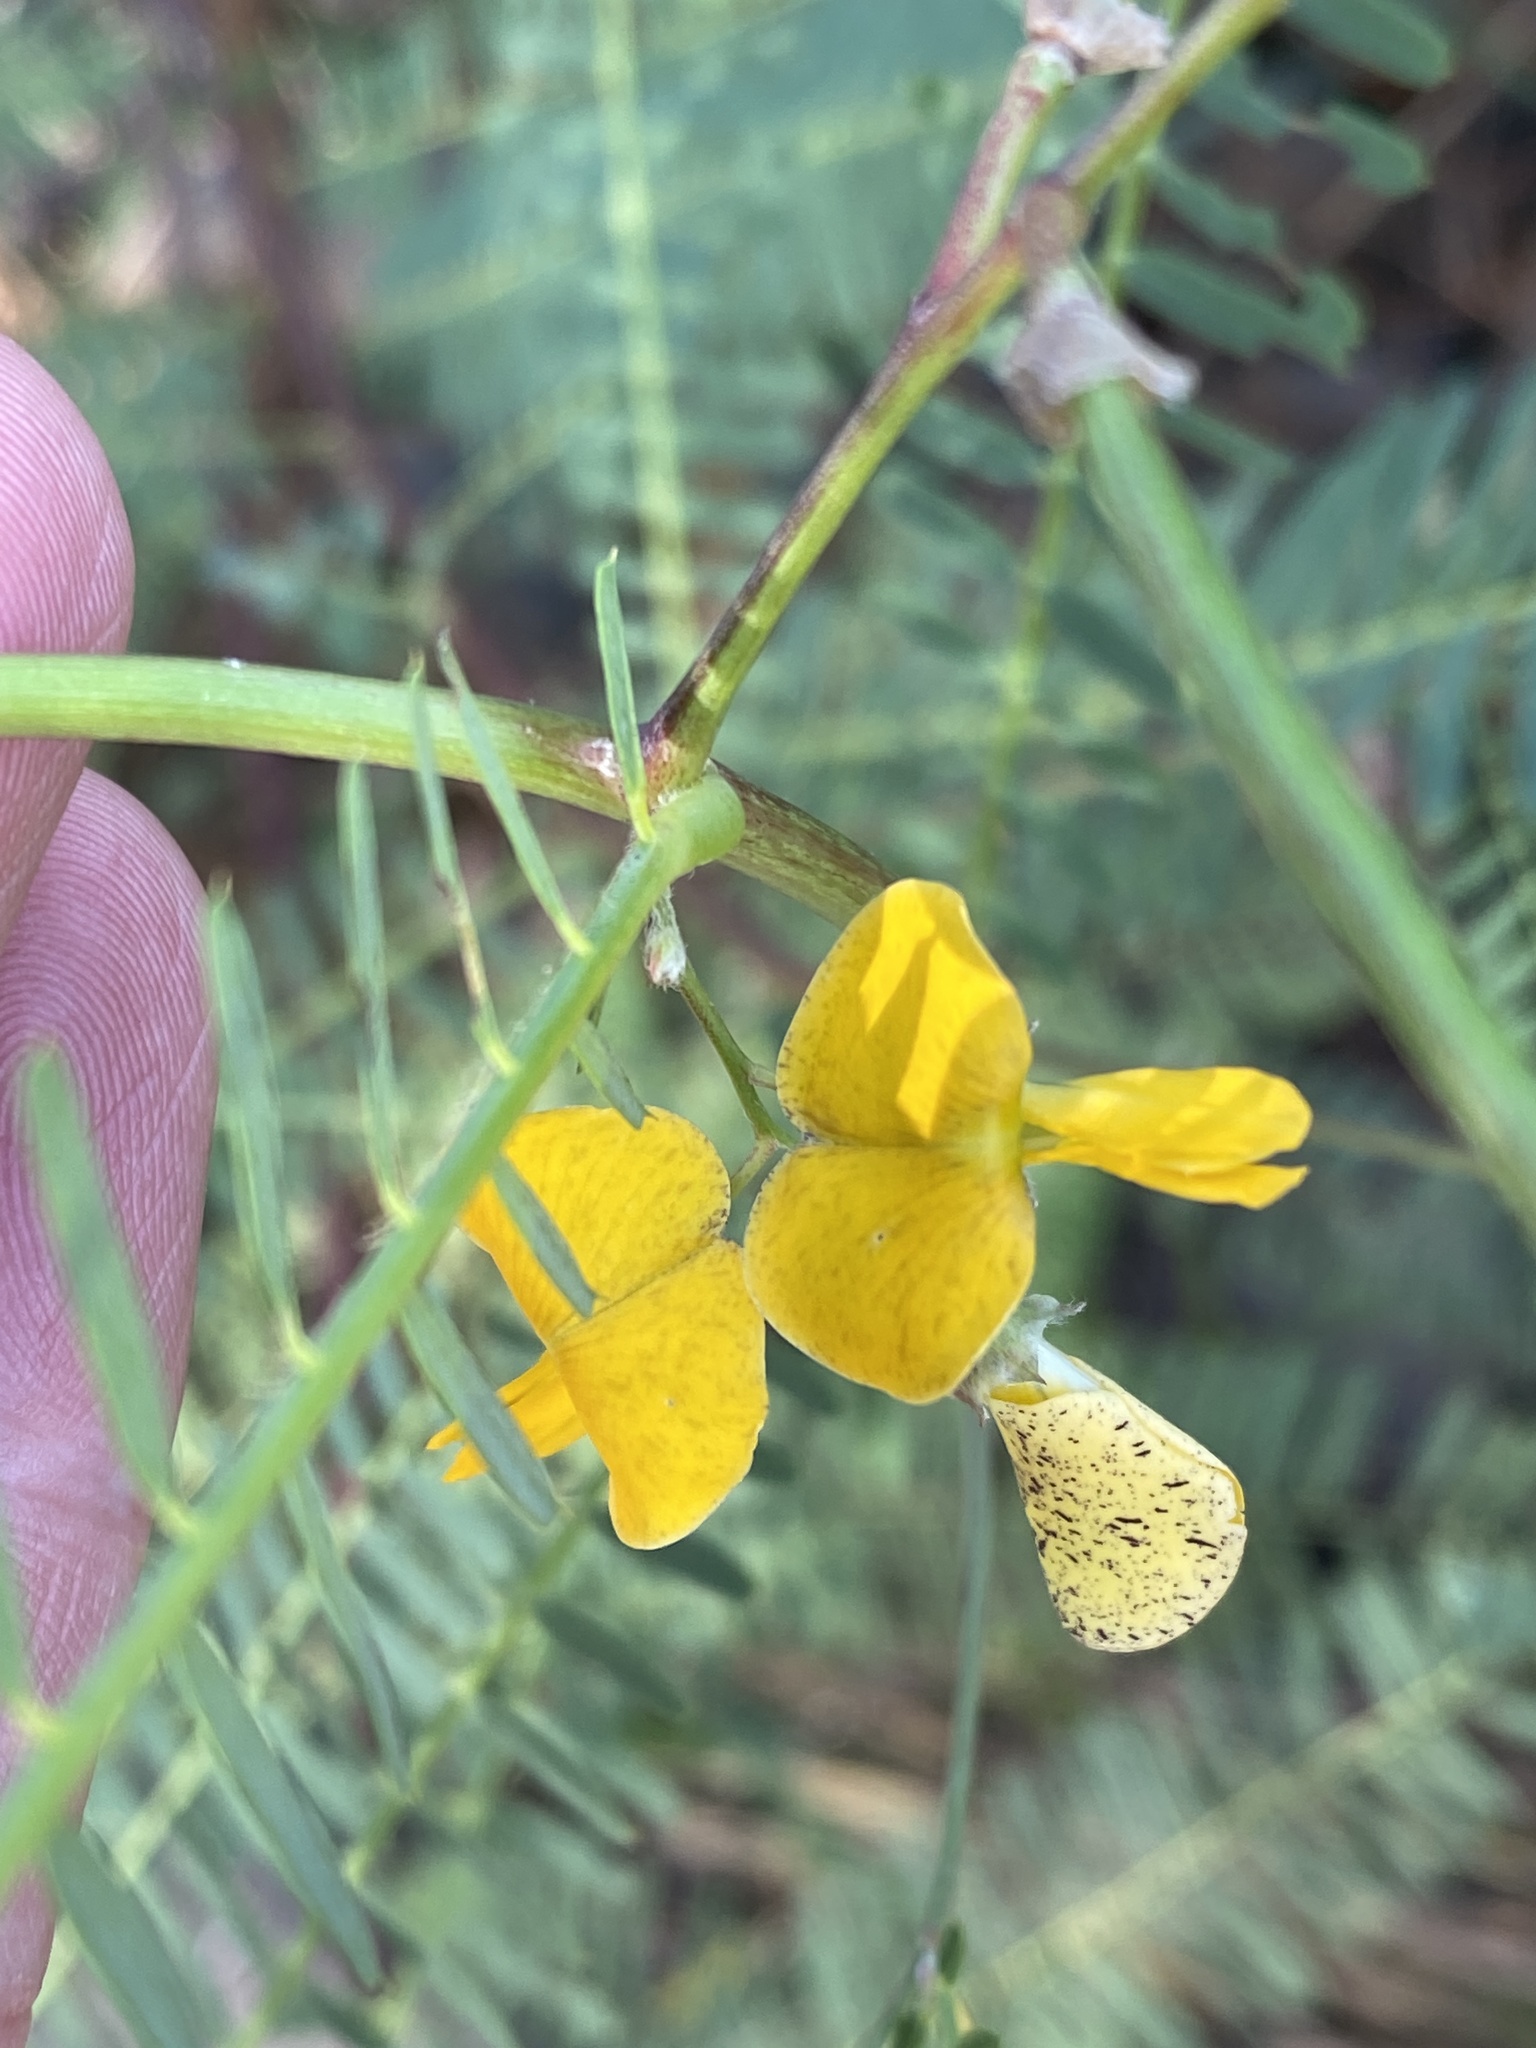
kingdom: Plantae
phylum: Tracheophyta
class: Magnoliopsida
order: Fabales
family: Fabaceae
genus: Sesbania
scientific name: Sesbania cannabina
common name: Canicha
